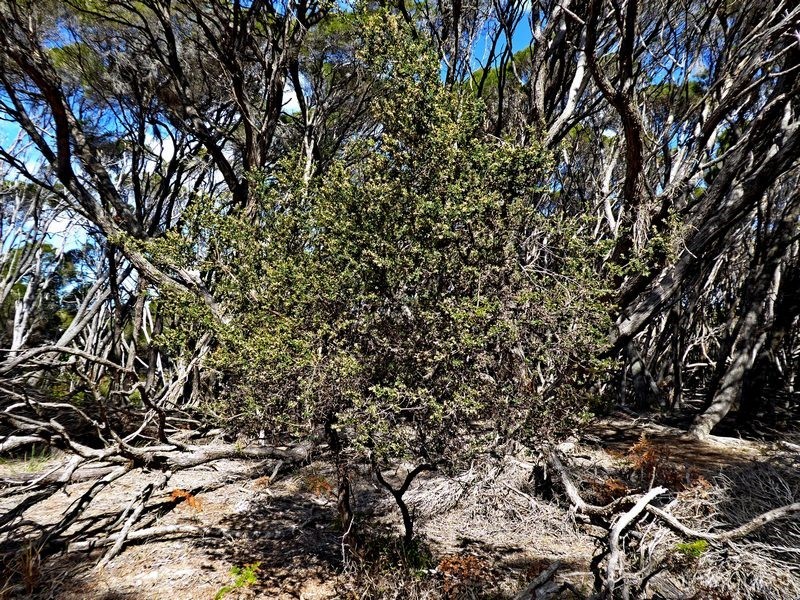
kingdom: Plantae
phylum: Tracheophyta
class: Magnoliopsida
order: Ericales
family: Ericaceae
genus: Monotoca
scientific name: Monotoca elliptica
